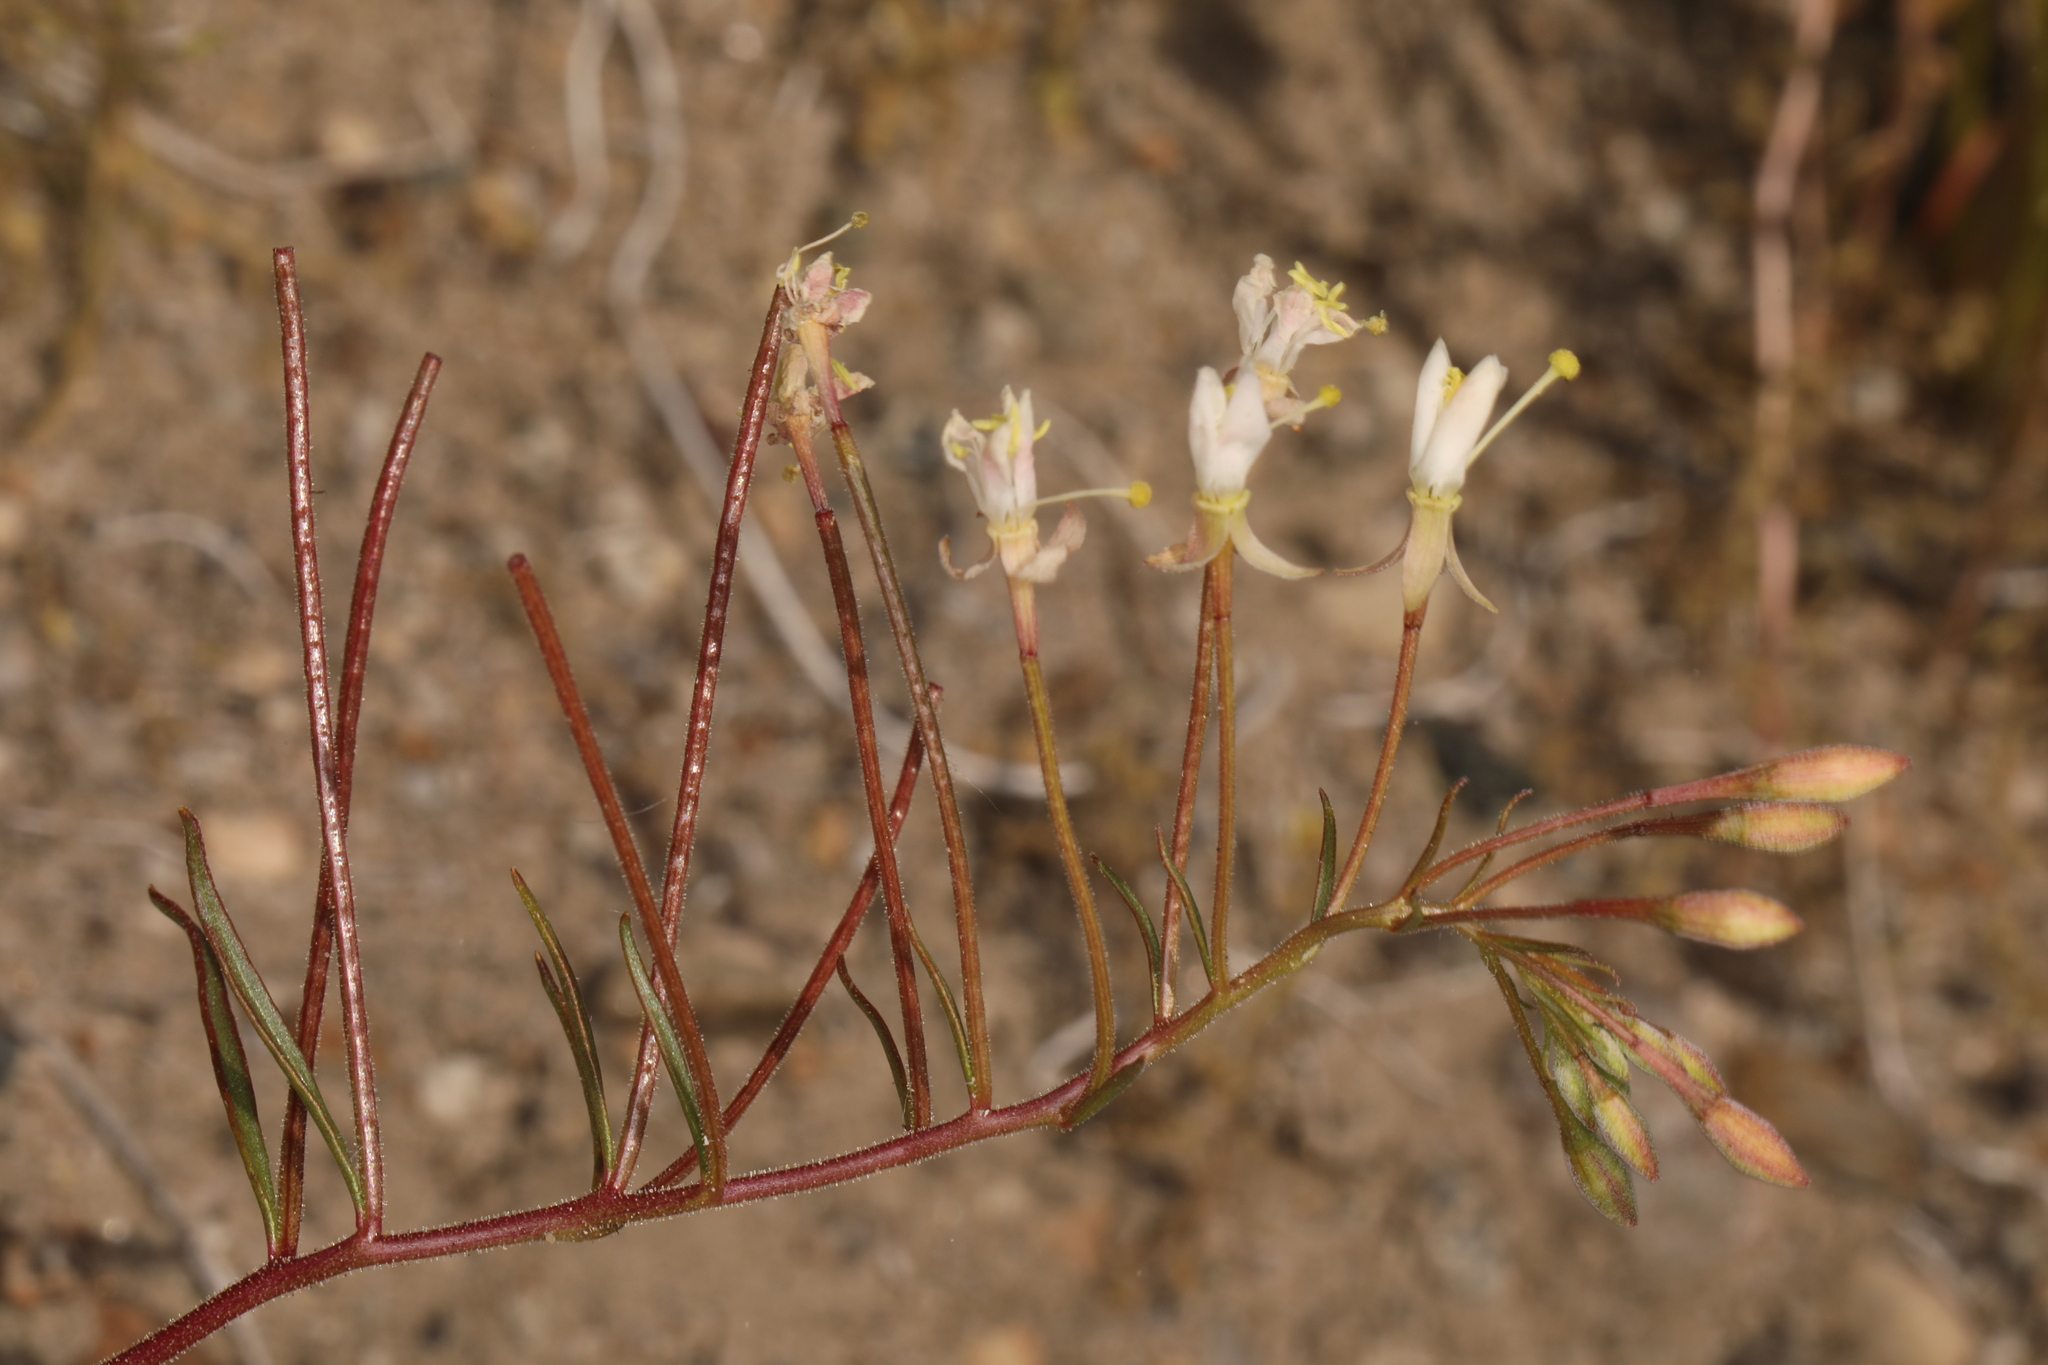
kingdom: Plantae
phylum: Tracheophyta
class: Magnoliopsida
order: Myrtales
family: Onagraceae
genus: Eremothera
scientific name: Eremothera refracta
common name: Narrowleaf suncup
